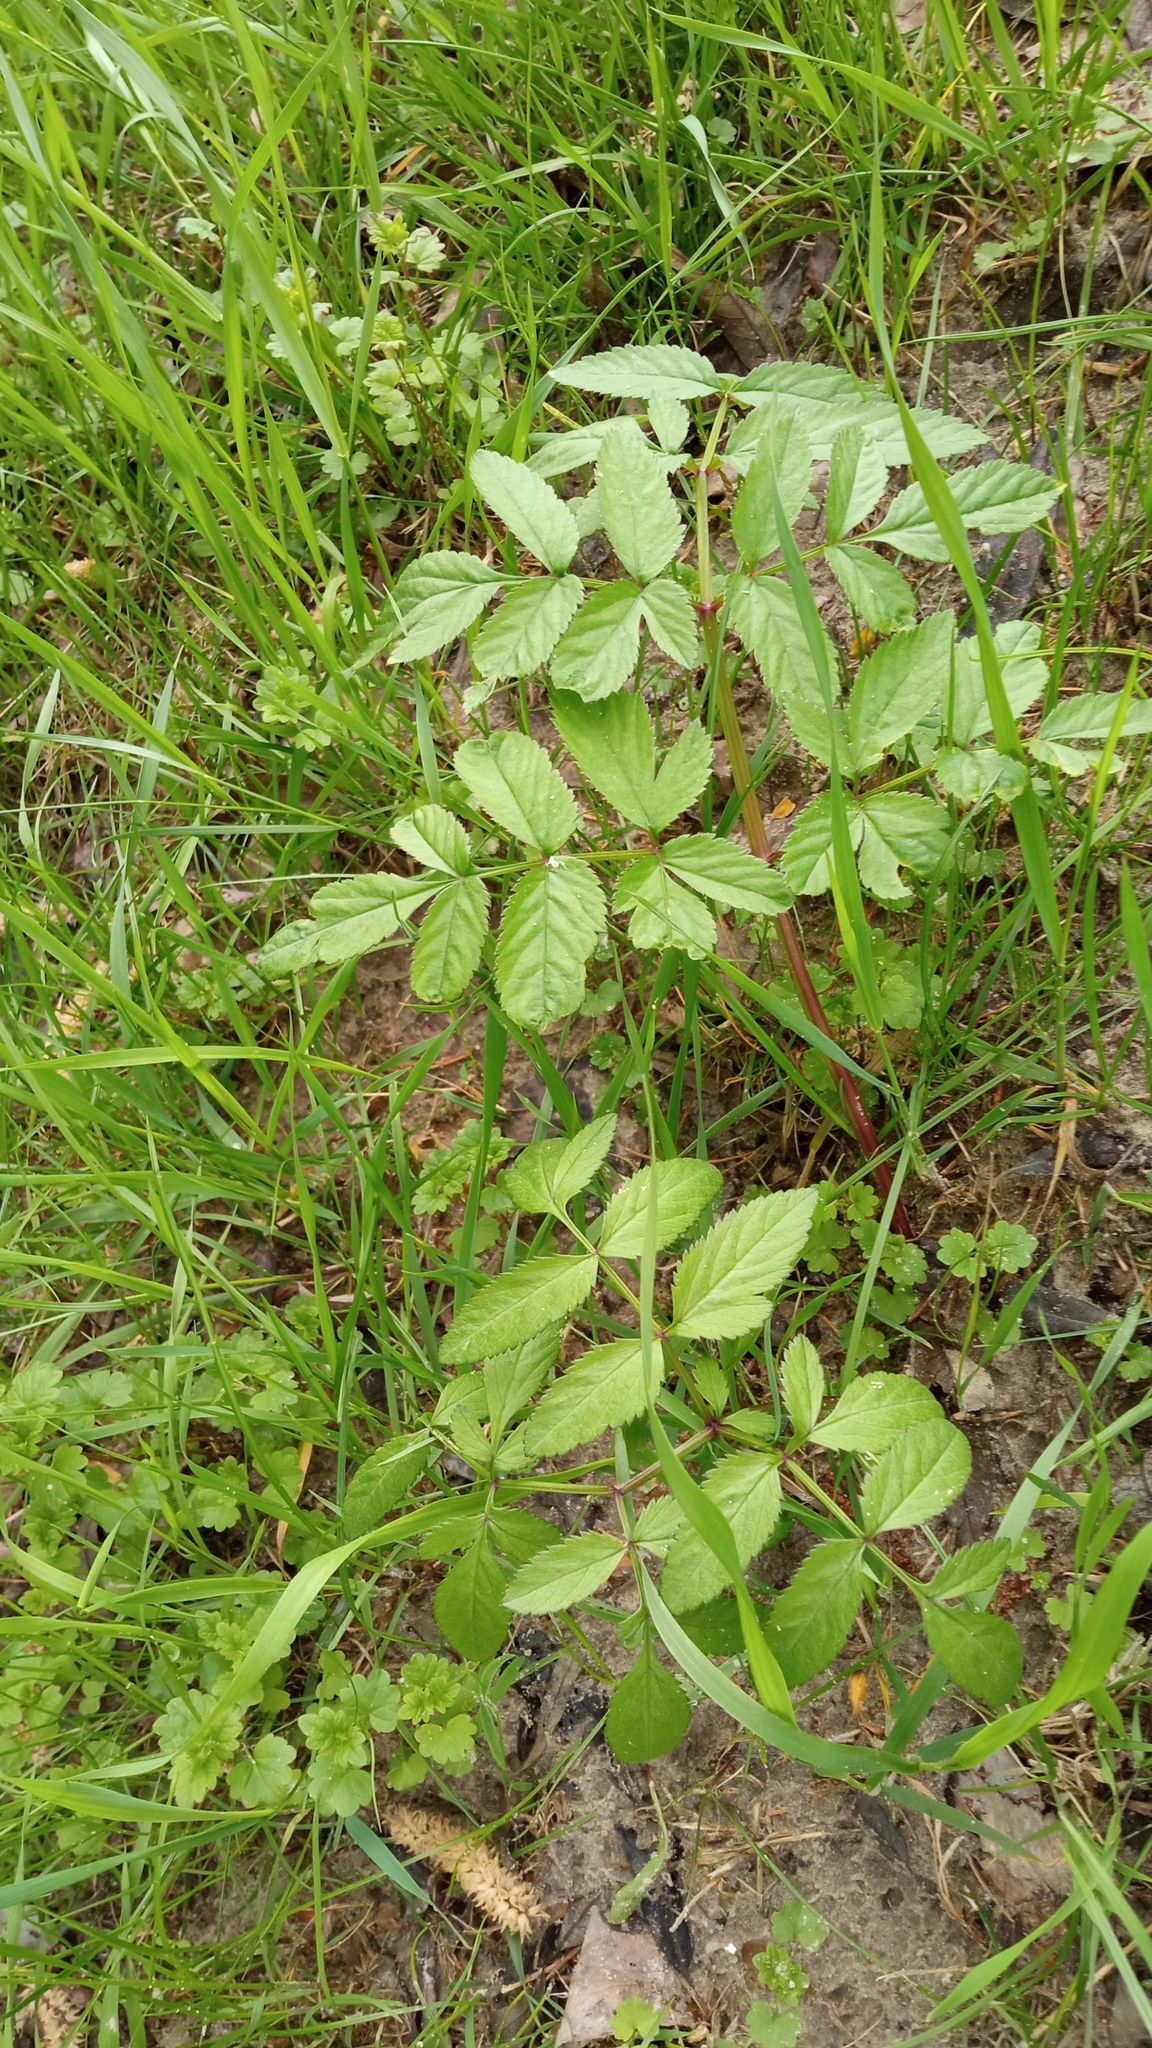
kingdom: Plantae
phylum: Tracheophyta
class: Magnoliopsida
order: Apiales
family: Apiaceae
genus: Angelica
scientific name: Angelica sylvestris
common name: Wild angelica
